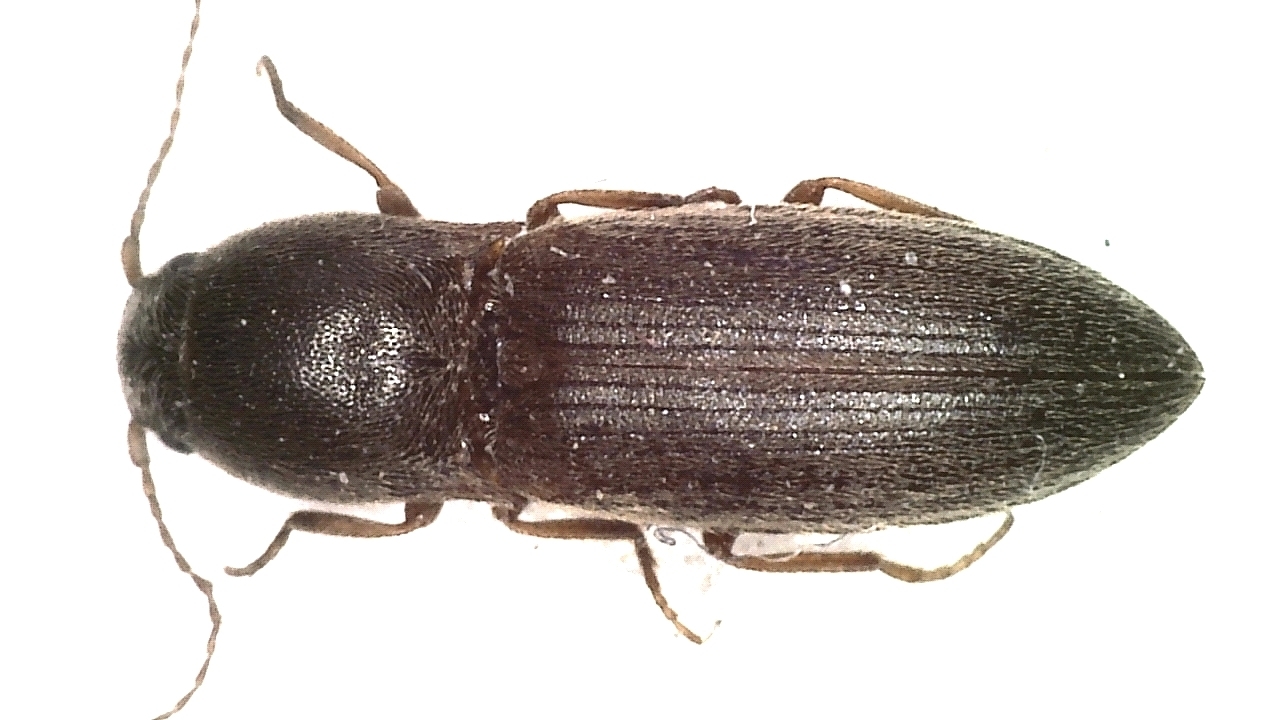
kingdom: Animalia
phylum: Arthropoda
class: Insecta
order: Coleoptera
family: Elateridae
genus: Athous
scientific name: Athous haemorrhoidalis
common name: Red-brown click beetle
